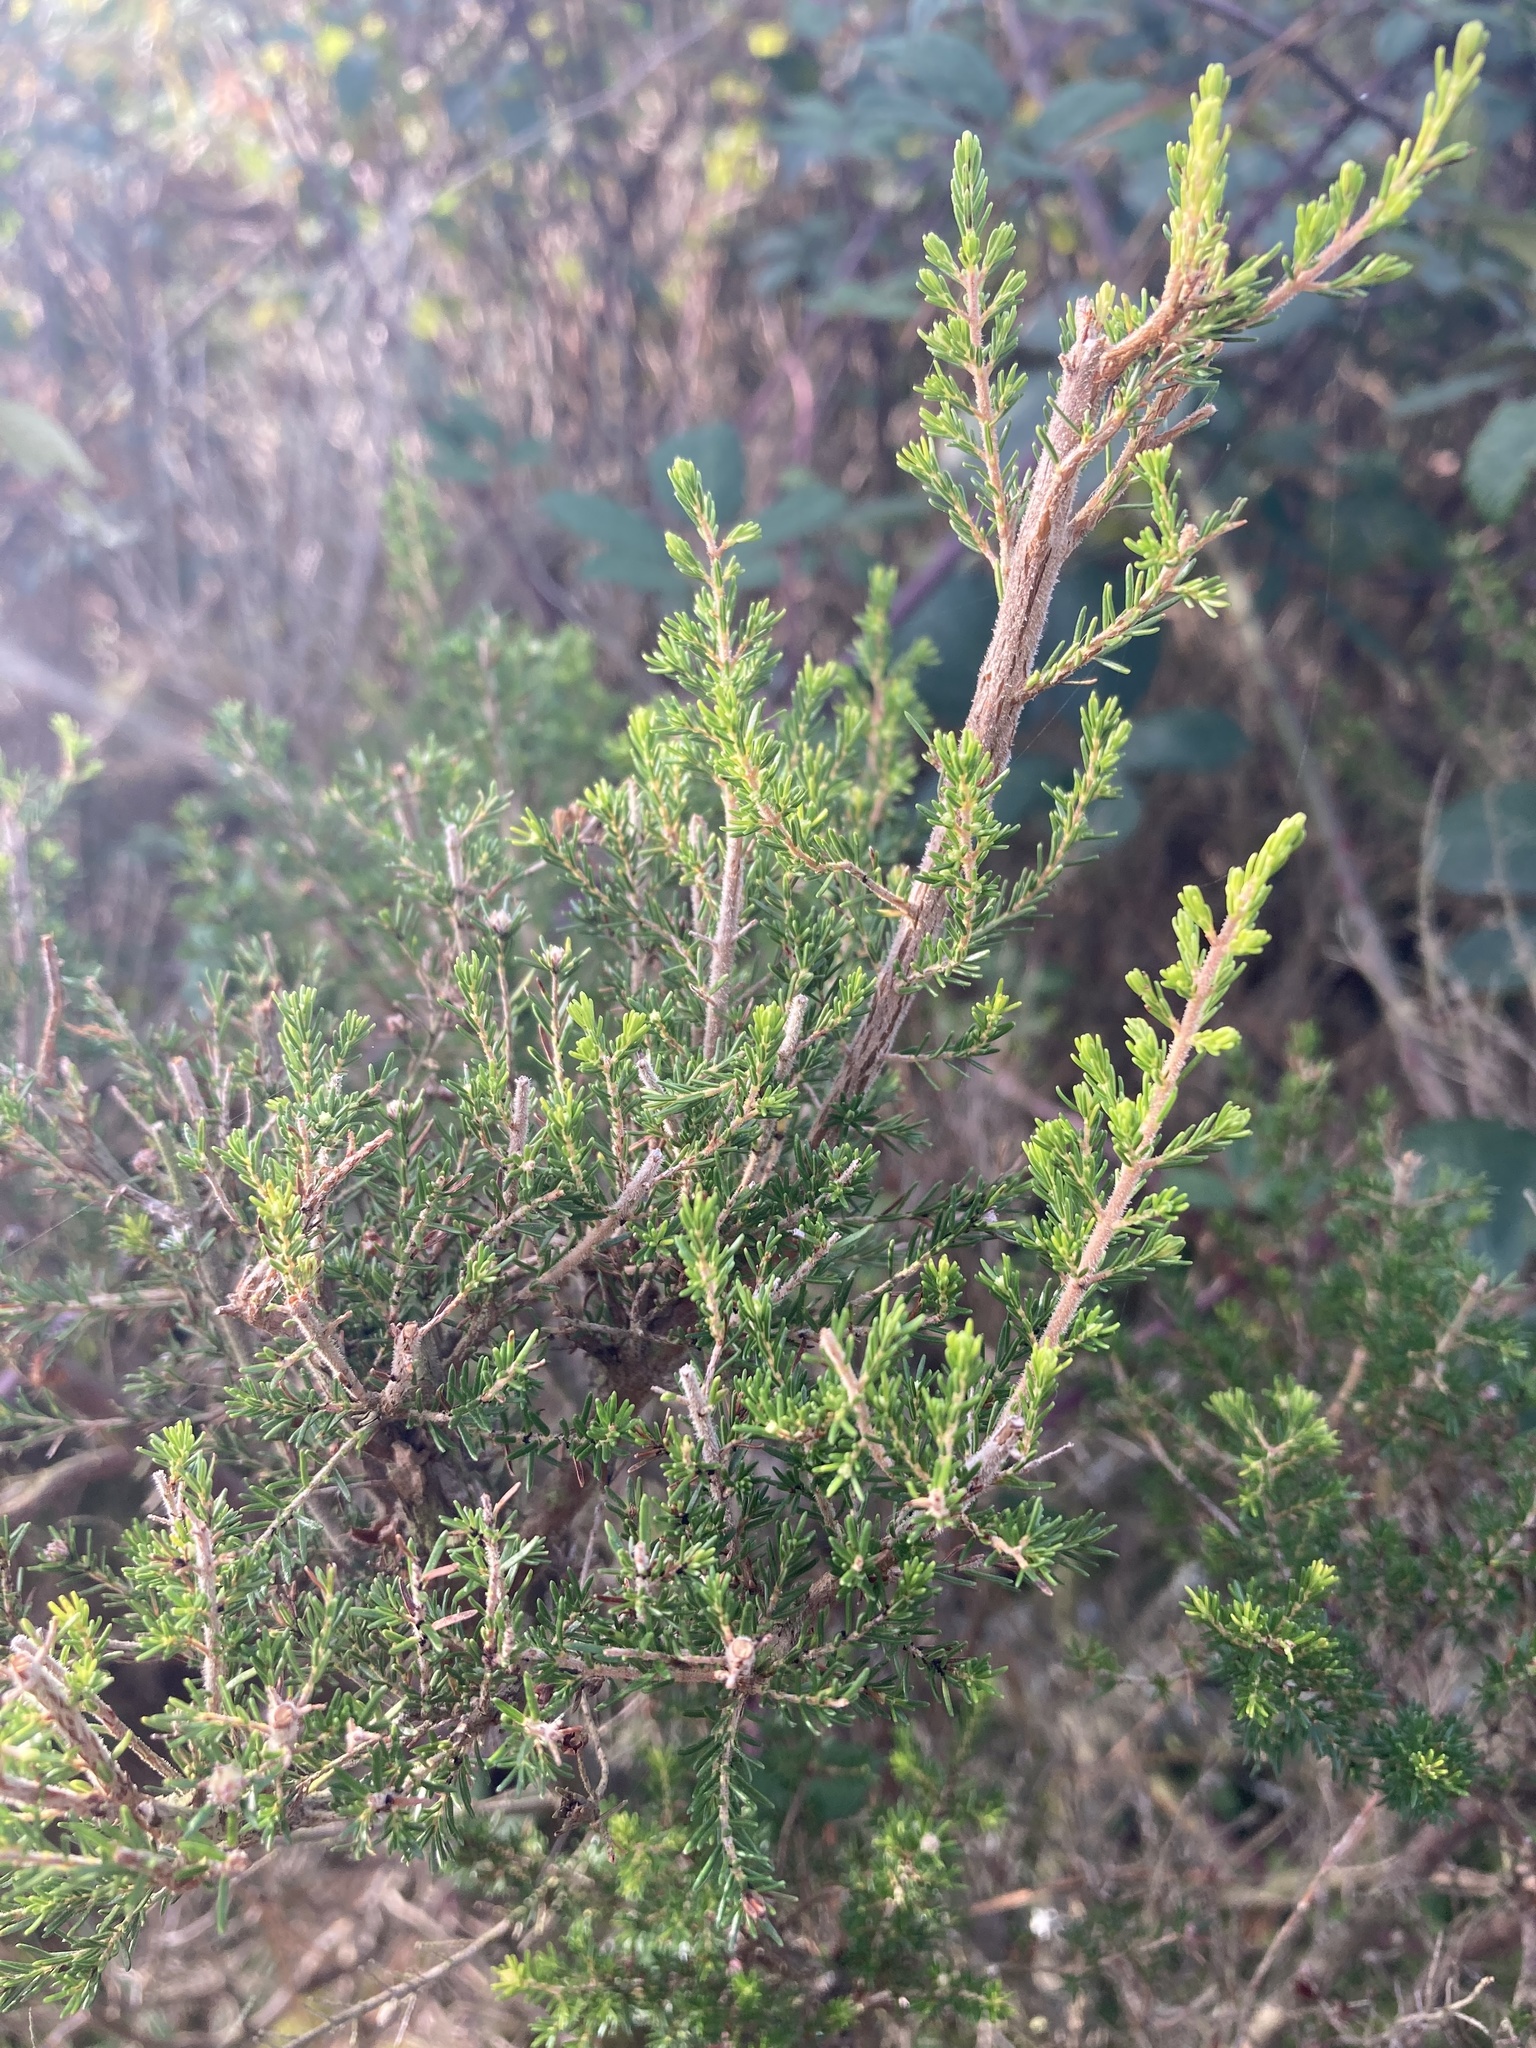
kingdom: Plantae
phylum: Tracheophyta
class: Magnoliopsida
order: Ericales
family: Ericaceae
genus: Erica
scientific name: Erica arborea
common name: Tree heath
